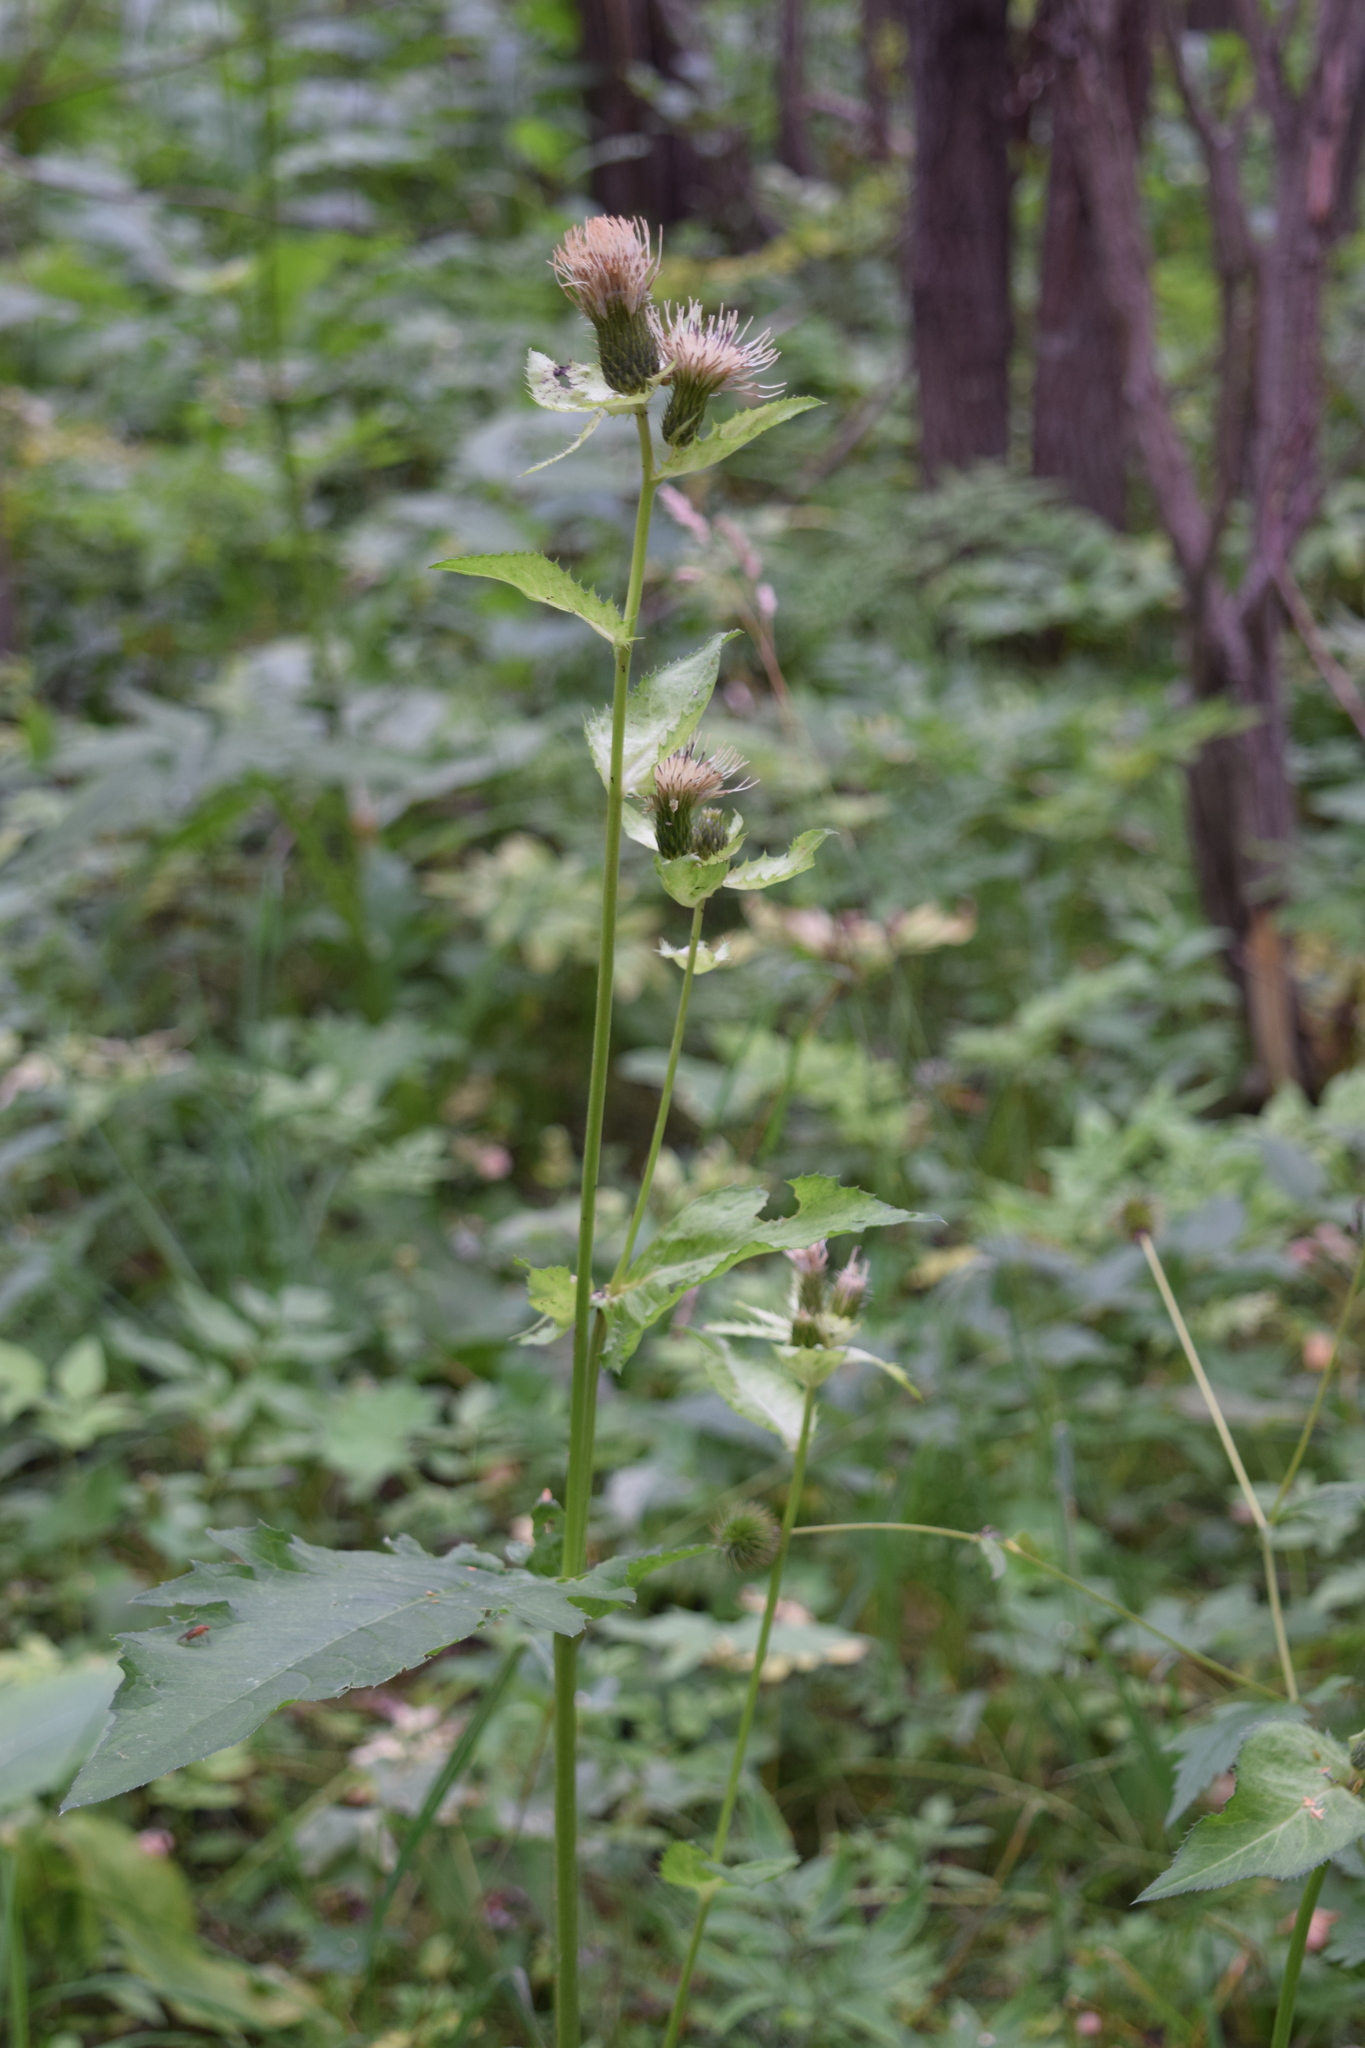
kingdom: Plantae
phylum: Tracheophyta
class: Magnoliopsida
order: Asterales
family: Asteraceae
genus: Cirsium
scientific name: Cirsium oleraceum
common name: Cabbage thistle
